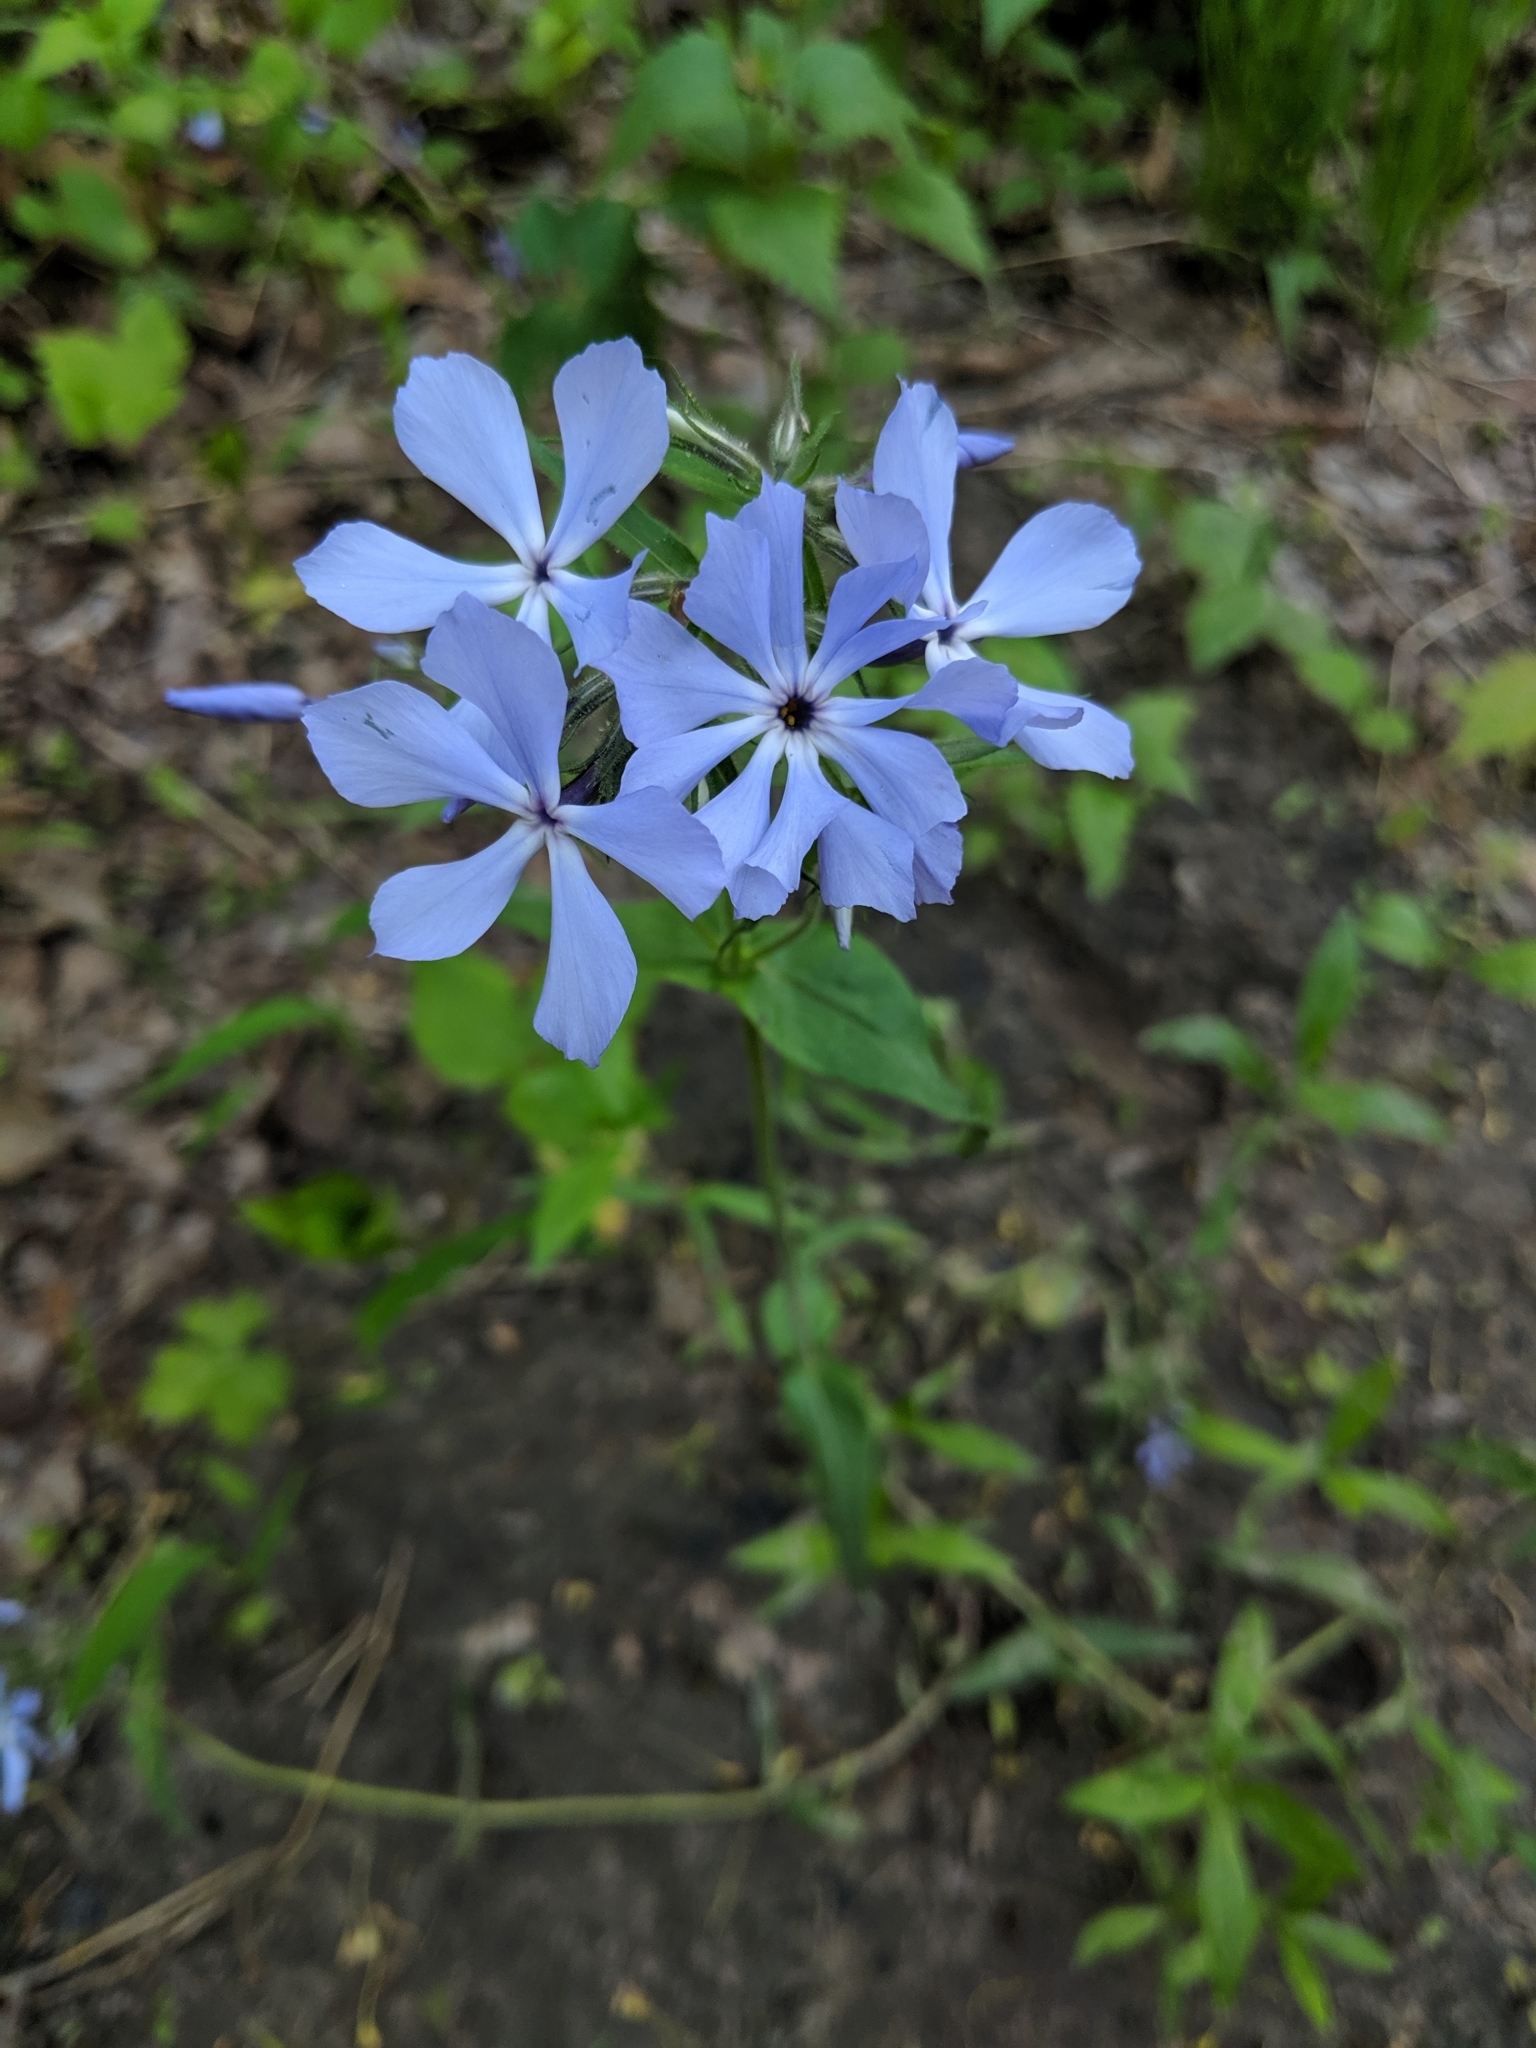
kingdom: Plantae
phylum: Tracheophyta
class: Magnoliopsida
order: Ericales
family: Polemoniaceae
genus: Phlox
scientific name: Phlox divaricata
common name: Blue phlox
